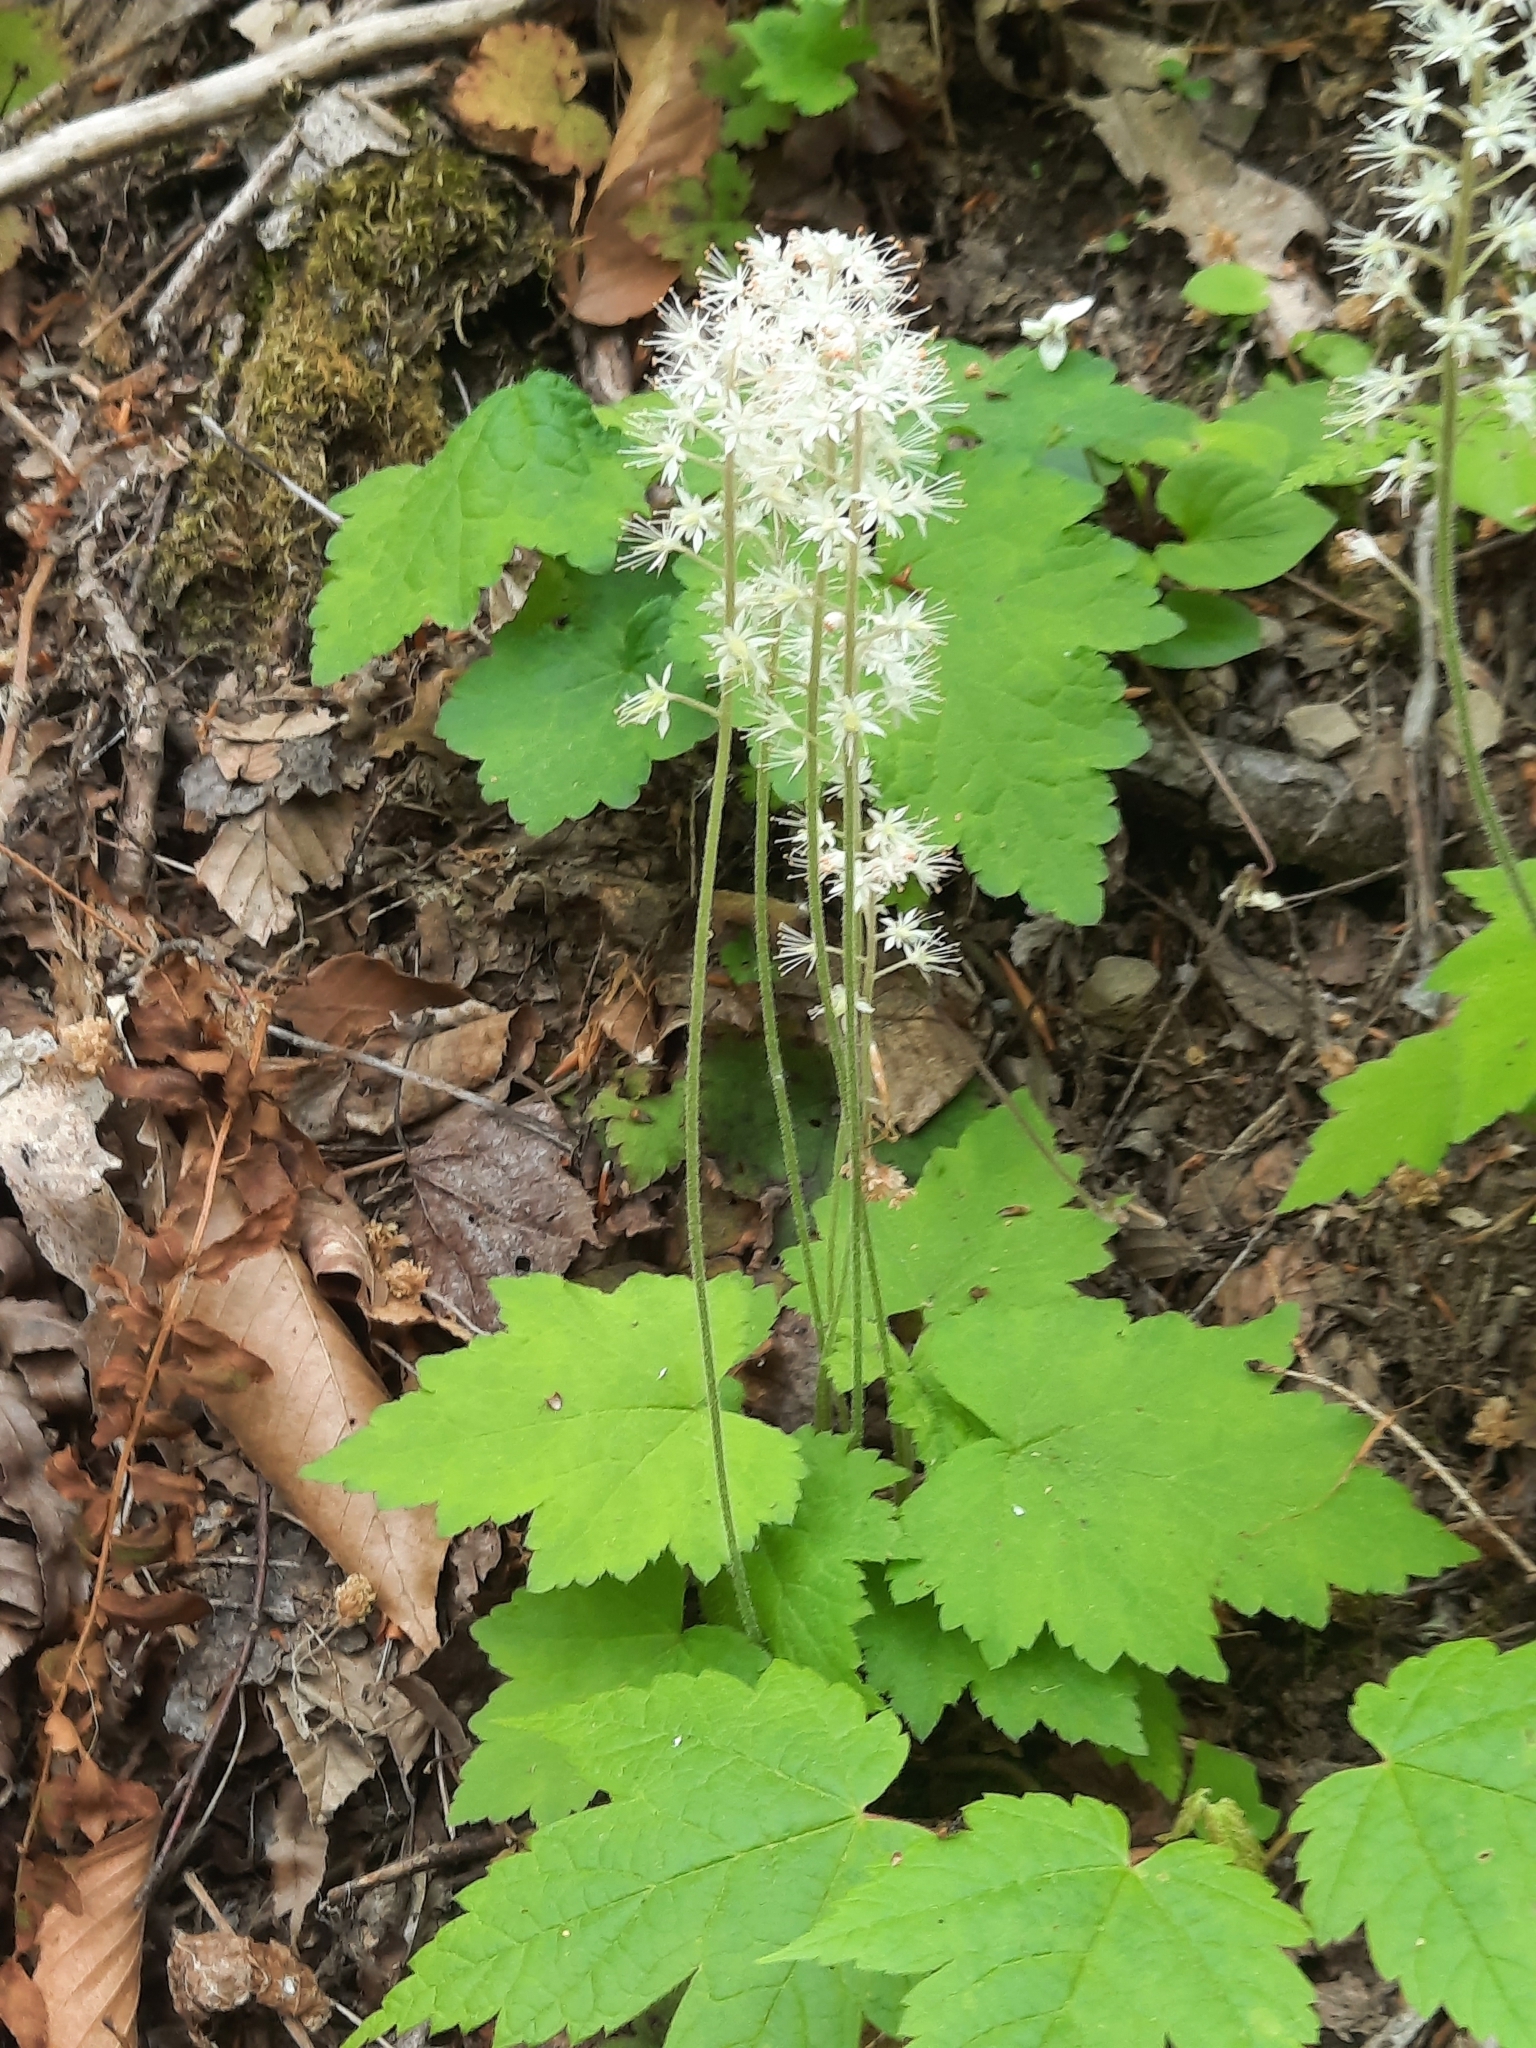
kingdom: Plantae
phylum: Tracheophyta
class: Magnoliopsida
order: Saxifragales
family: Saxifragaceae
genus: Tiarella
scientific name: Tiarella stolonifera
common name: Stoloniferous foamflower
